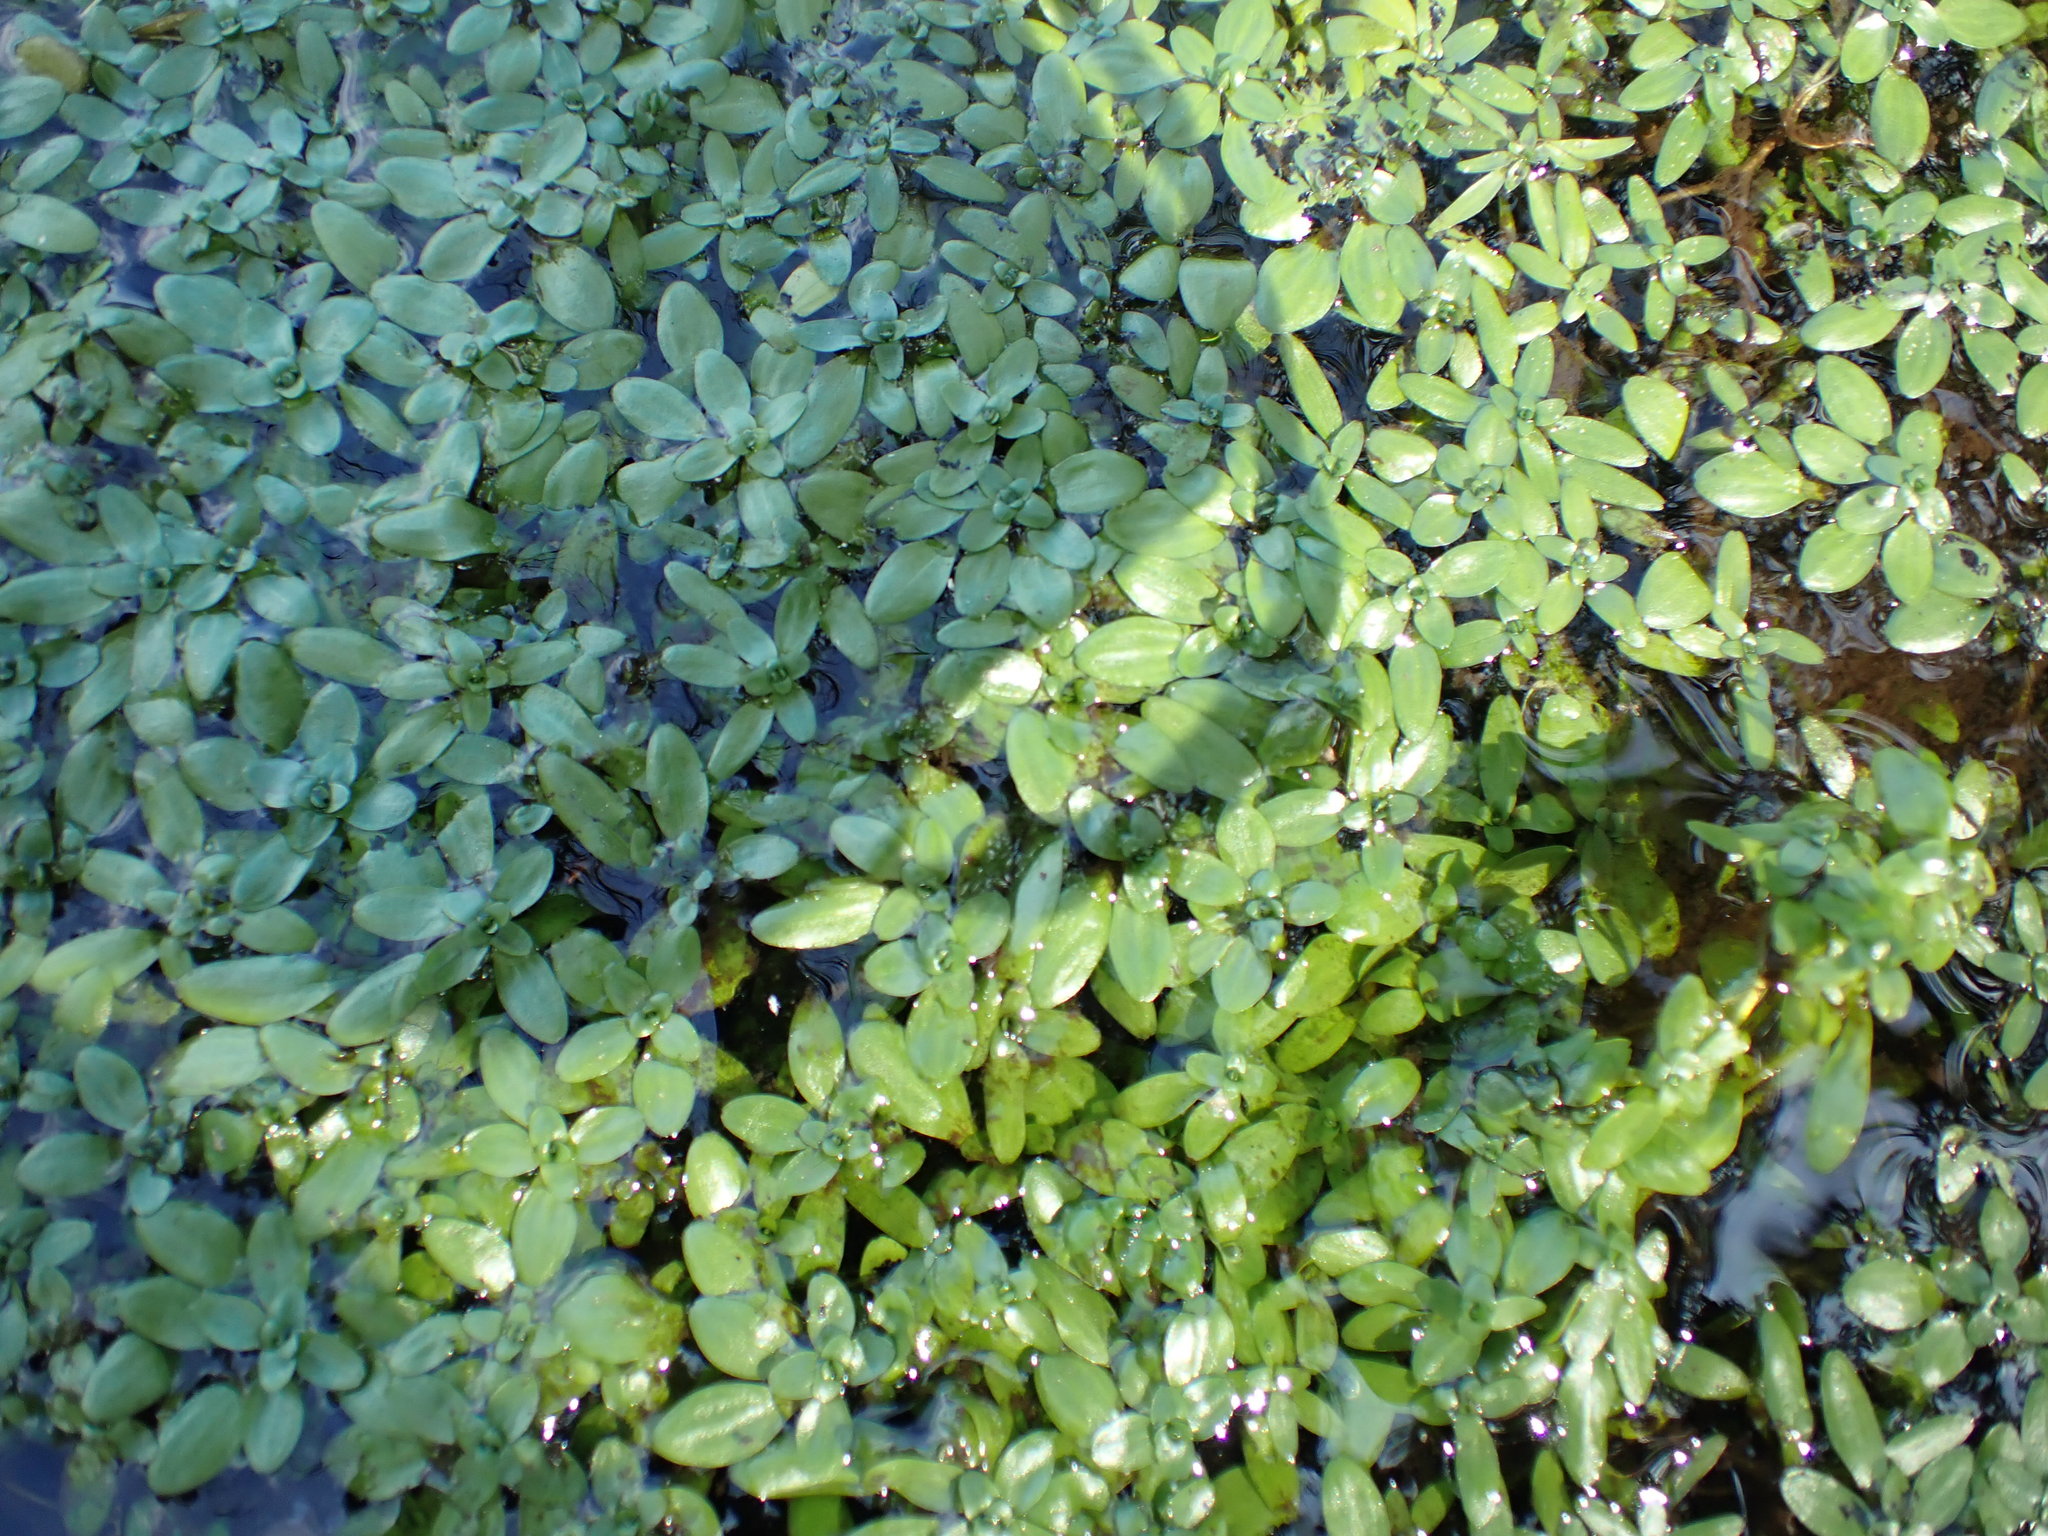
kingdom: Plantae
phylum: Tracheophyta
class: Magnoliopsida
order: Lamiales
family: Plantaginaceae
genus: Callitriche
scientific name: Callitriche platycarpa
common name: Various-leaved water-starwort
